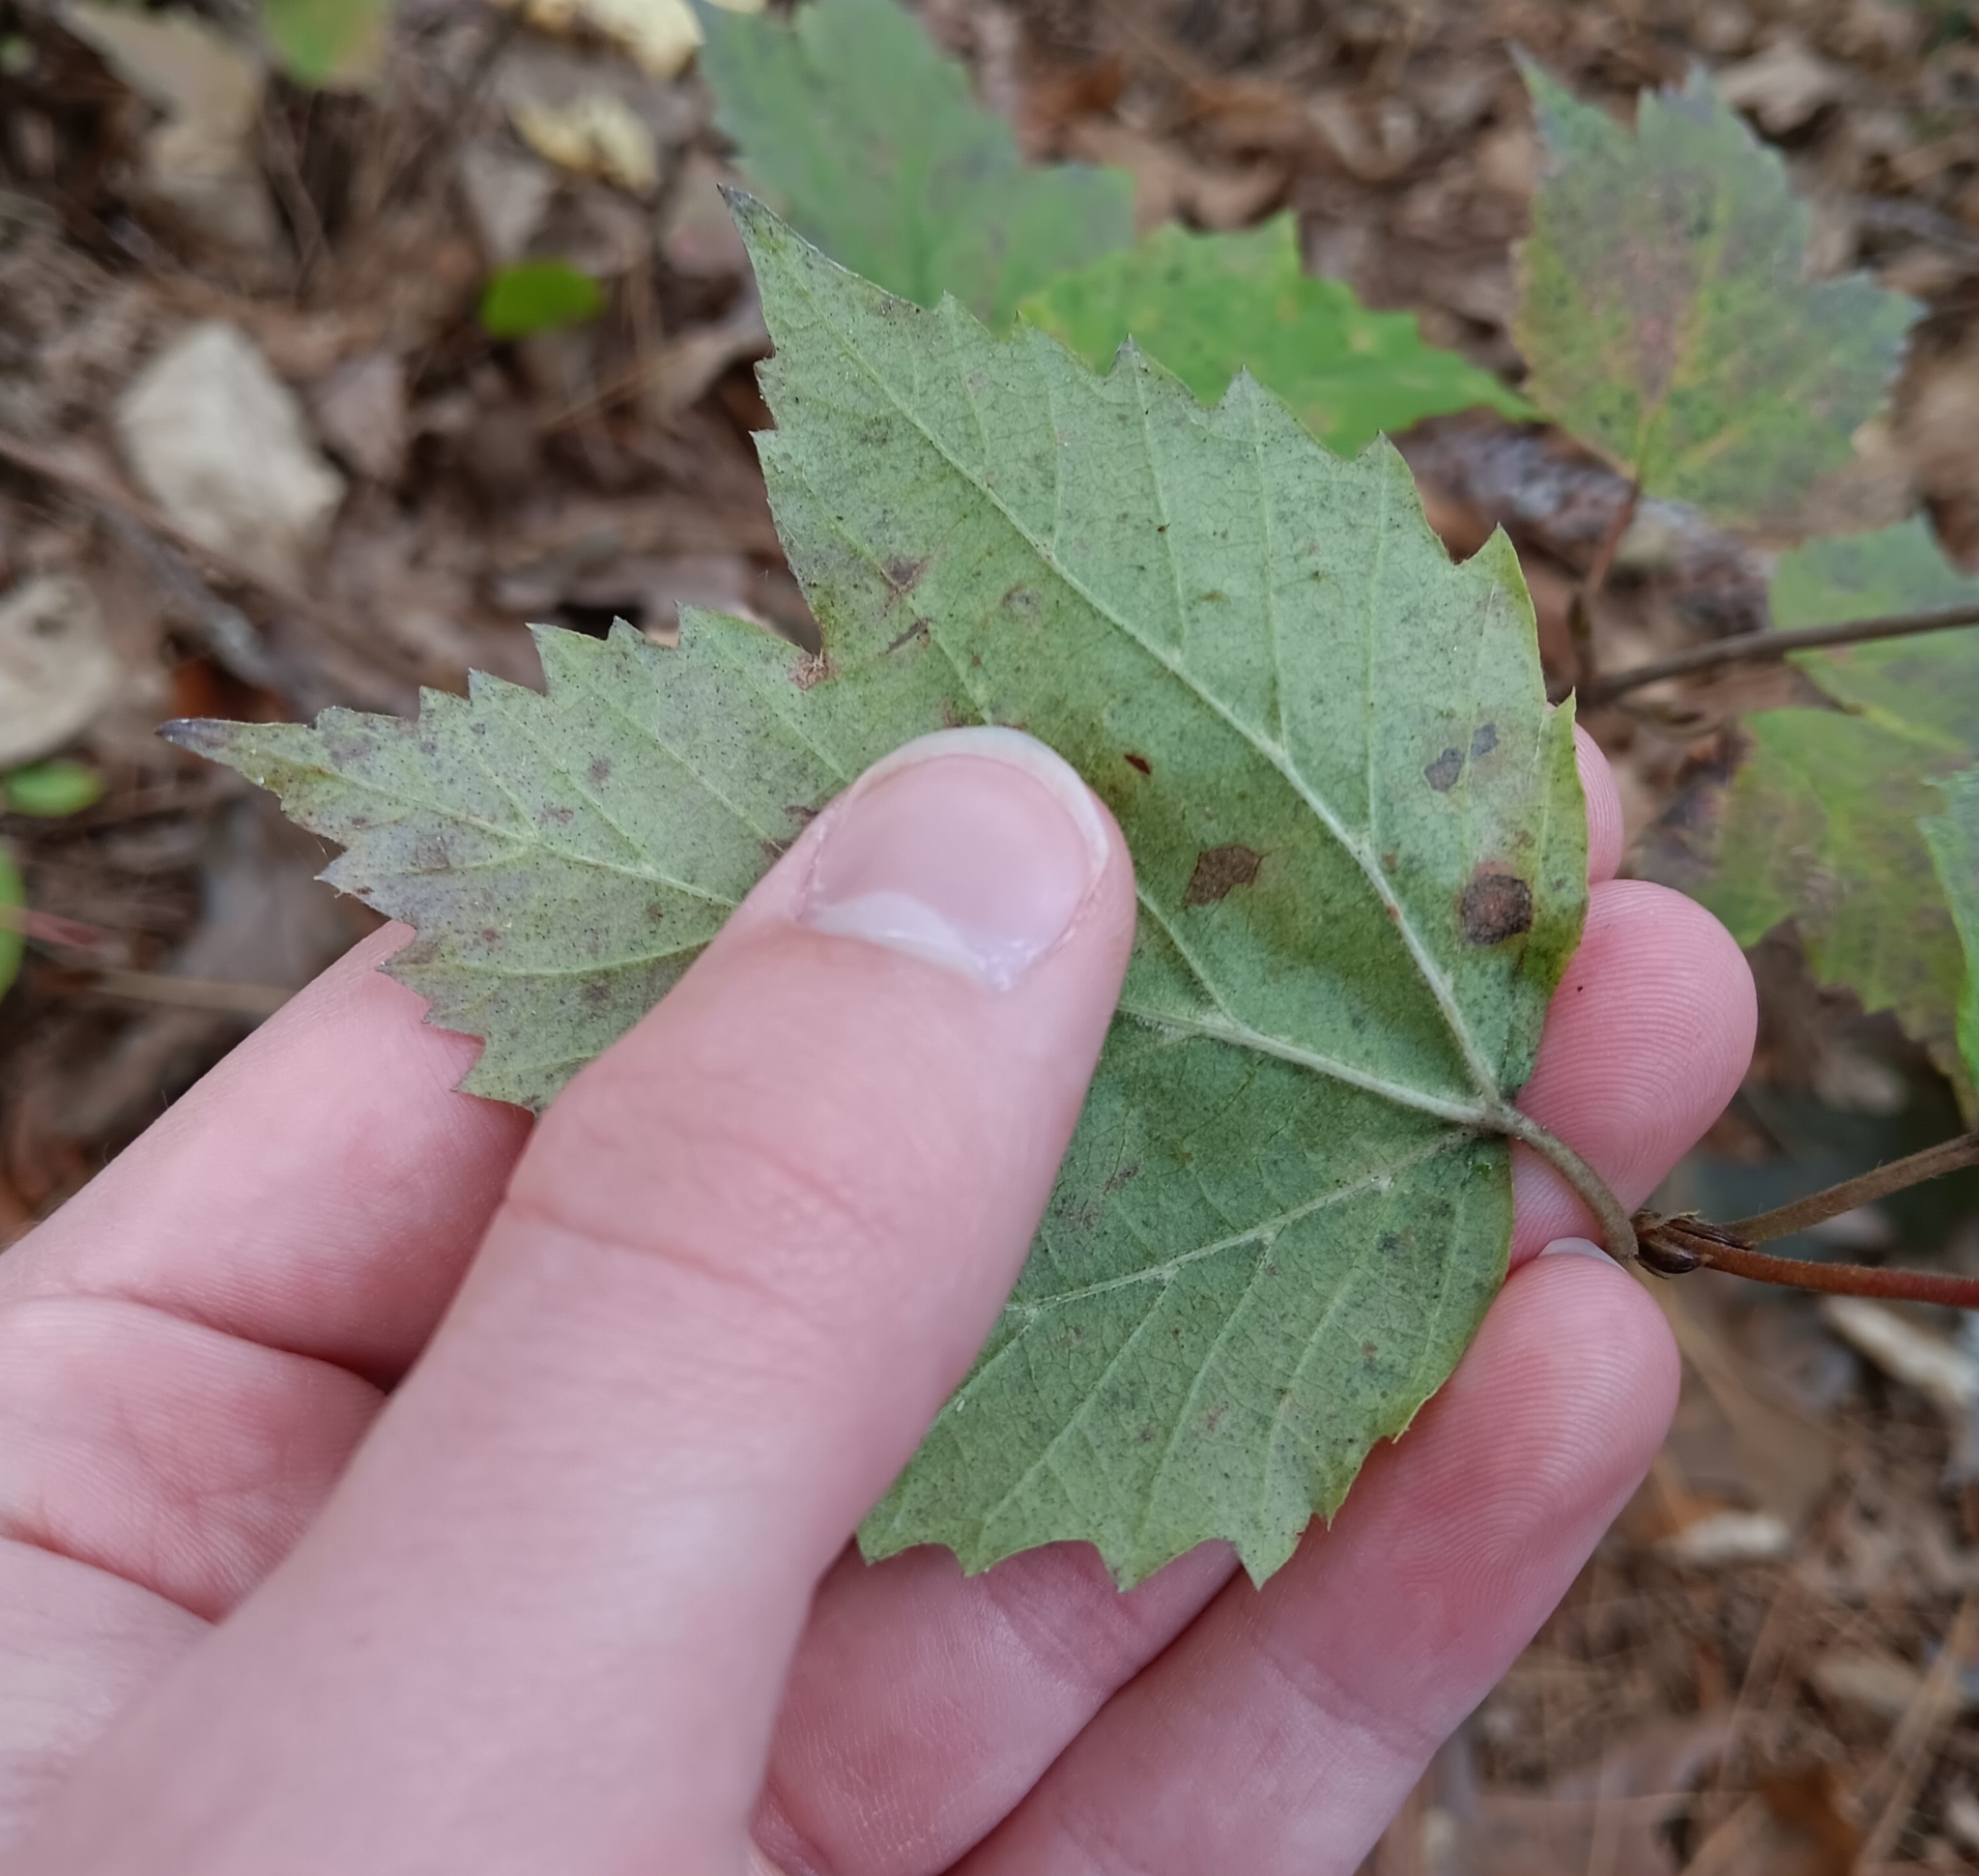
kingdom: Plantae
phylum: Tracheophyta
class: Magnoliopsida
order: Dipsacales
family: Viburnaceae
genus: Viburnum
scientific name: Viburnum acerifolium
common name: Dockmackie
